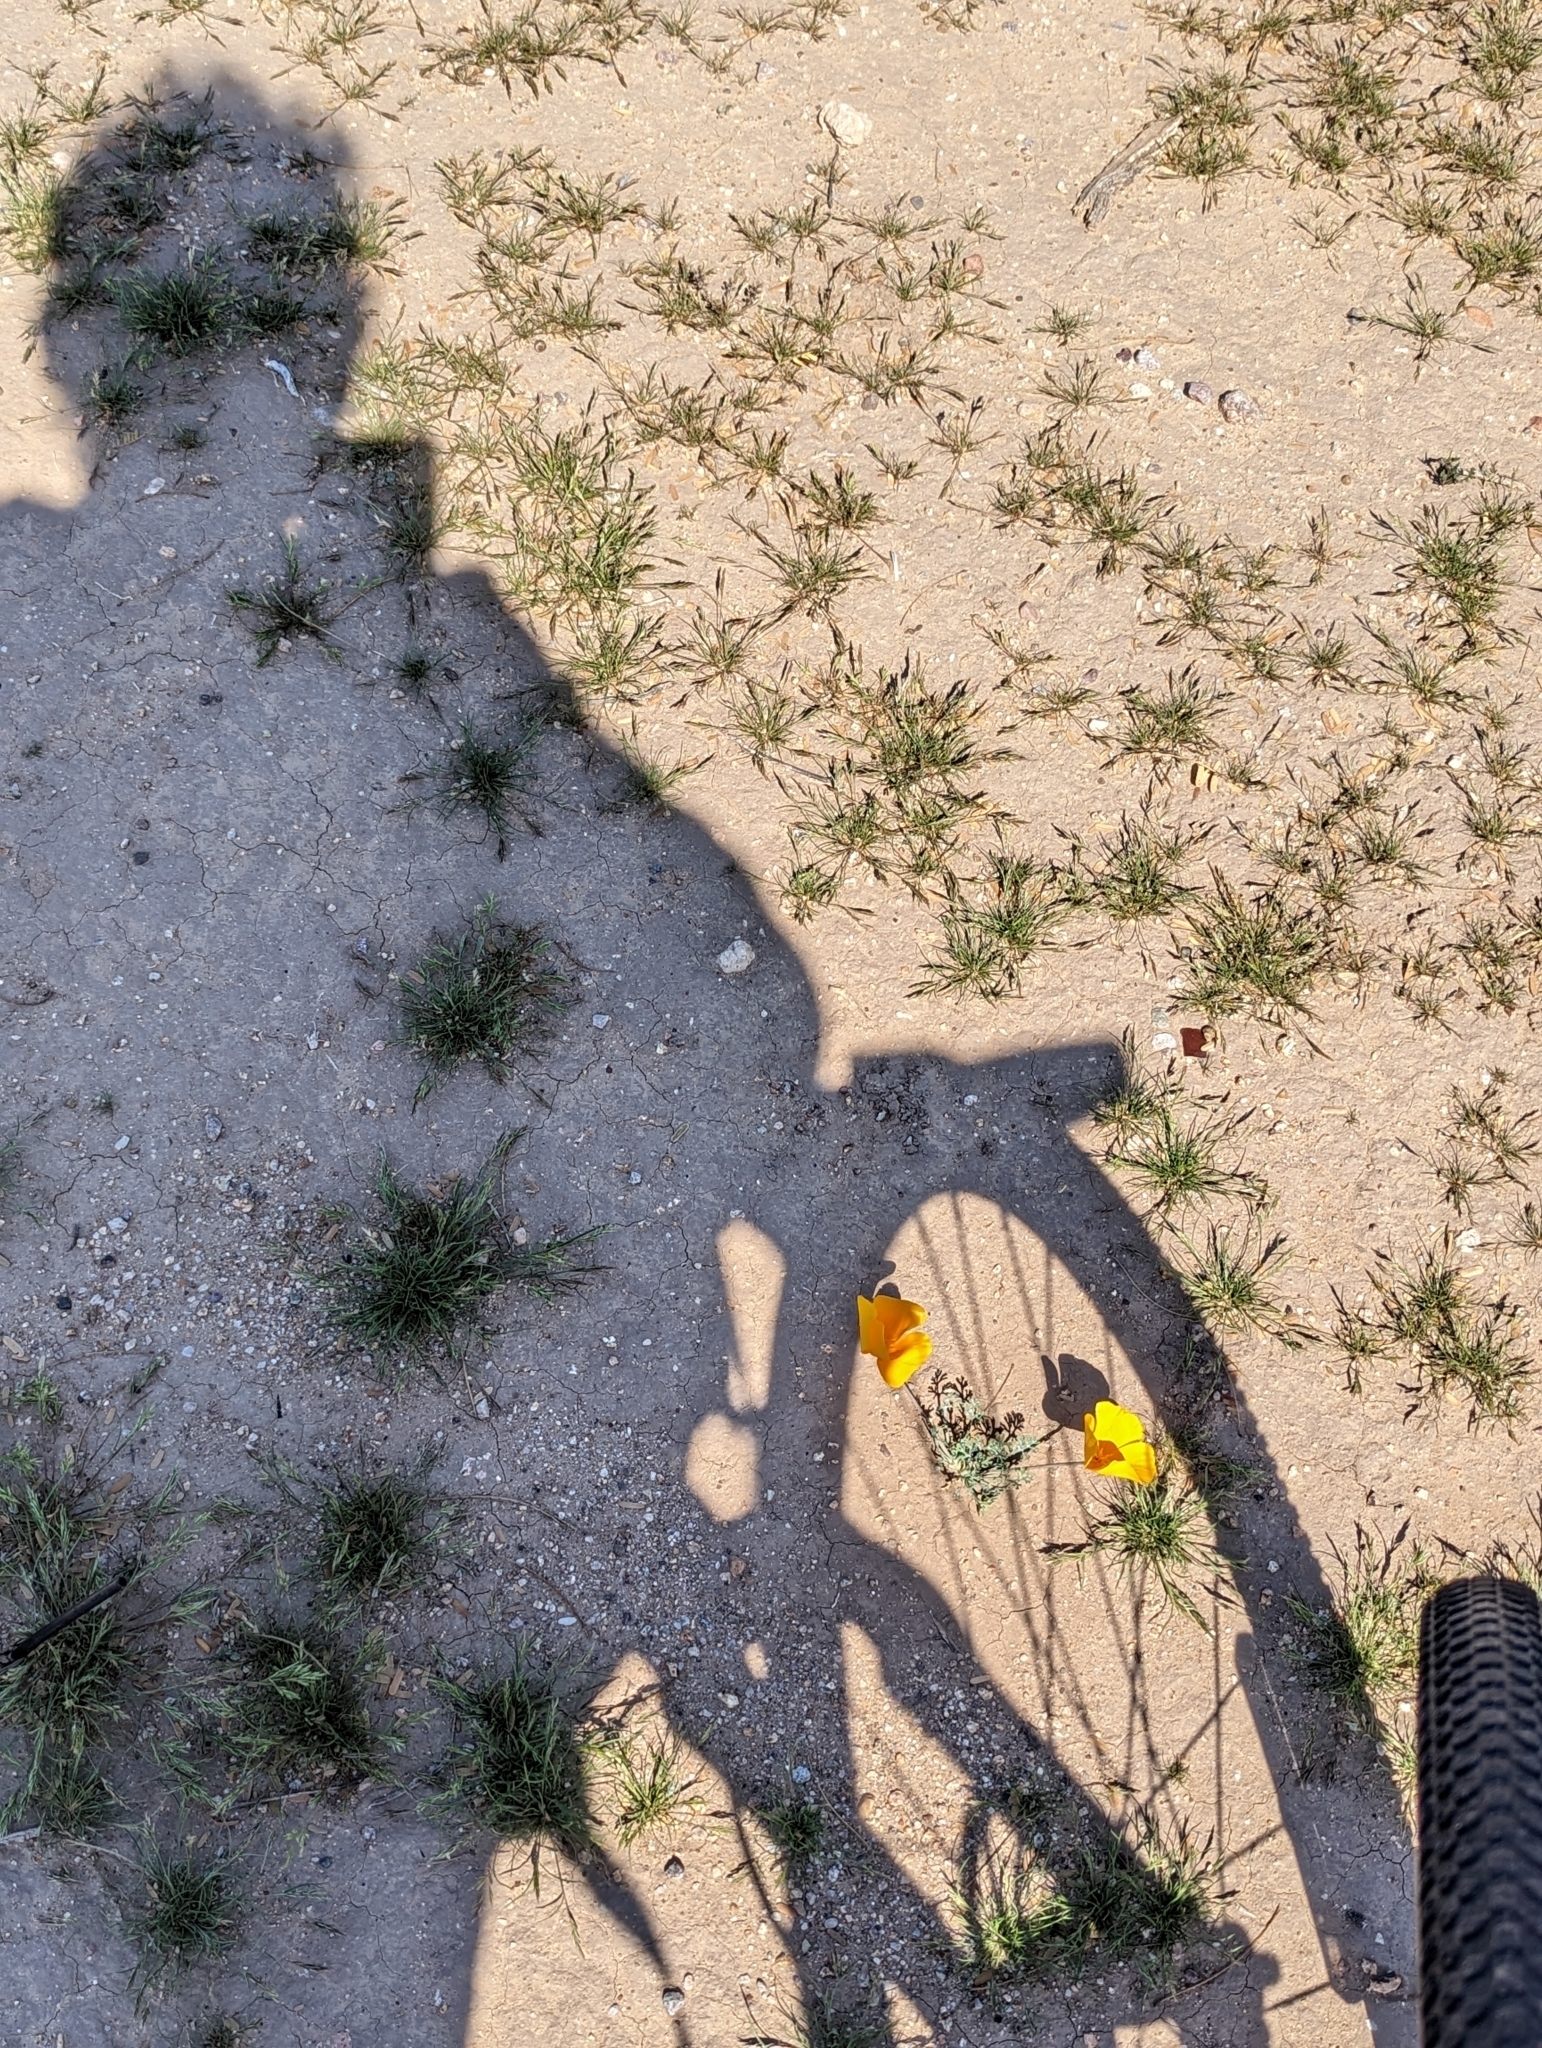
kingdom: Plantae
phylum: Tracheophyta
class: Magnoliopsida
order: Ranunculales
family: Papaveraceae
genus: Eschscholzia
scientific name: Eschscholzia californica
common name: California poppy
